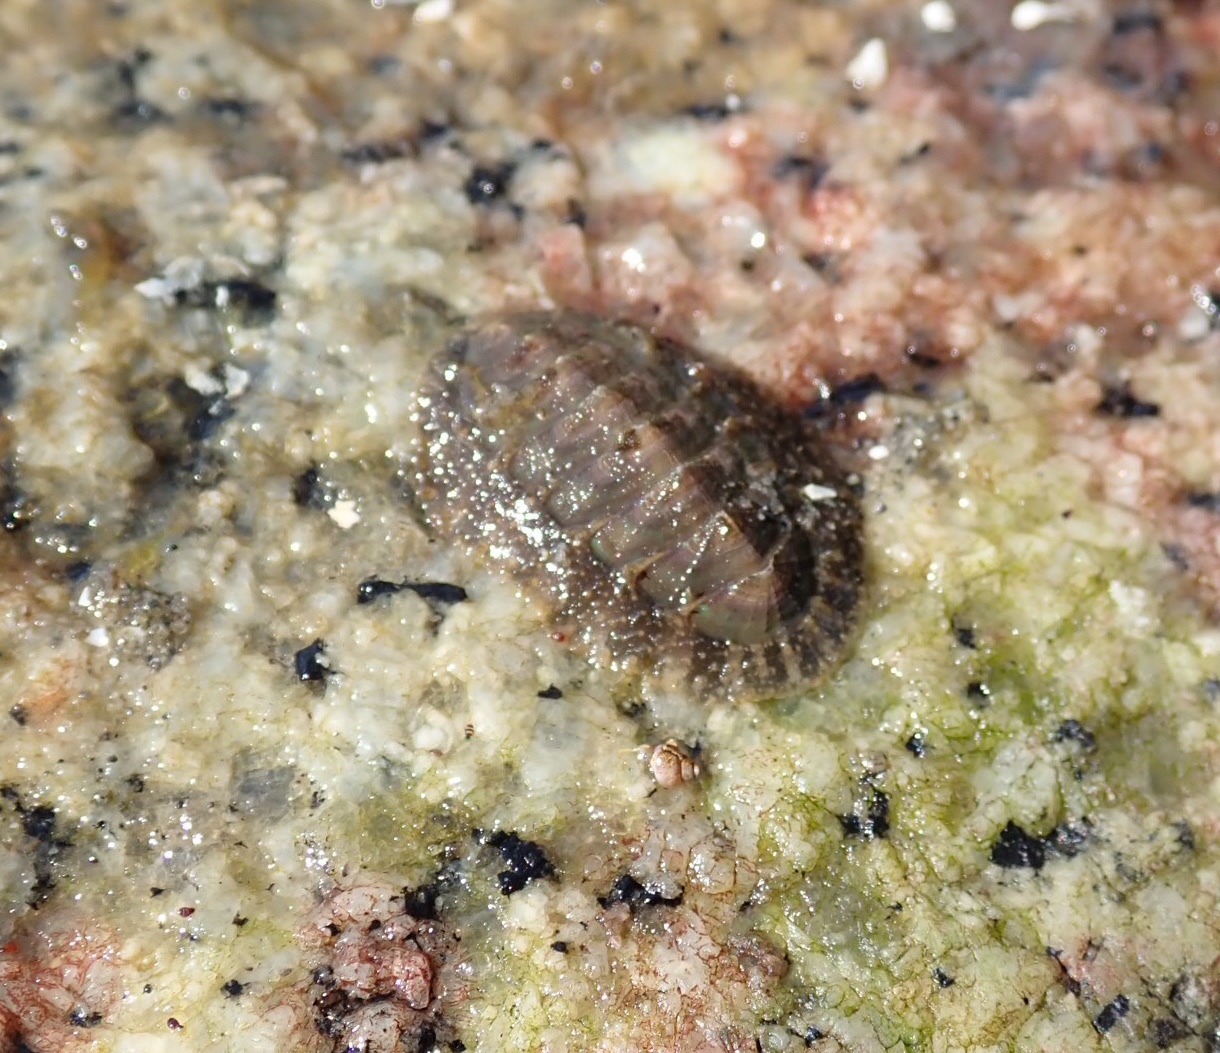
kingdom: Animalia
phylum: Mollusca
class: Polyplacophora
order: Chitonida
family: Mopaliidae
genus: Mopalia
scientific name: Mopalia hindsii
